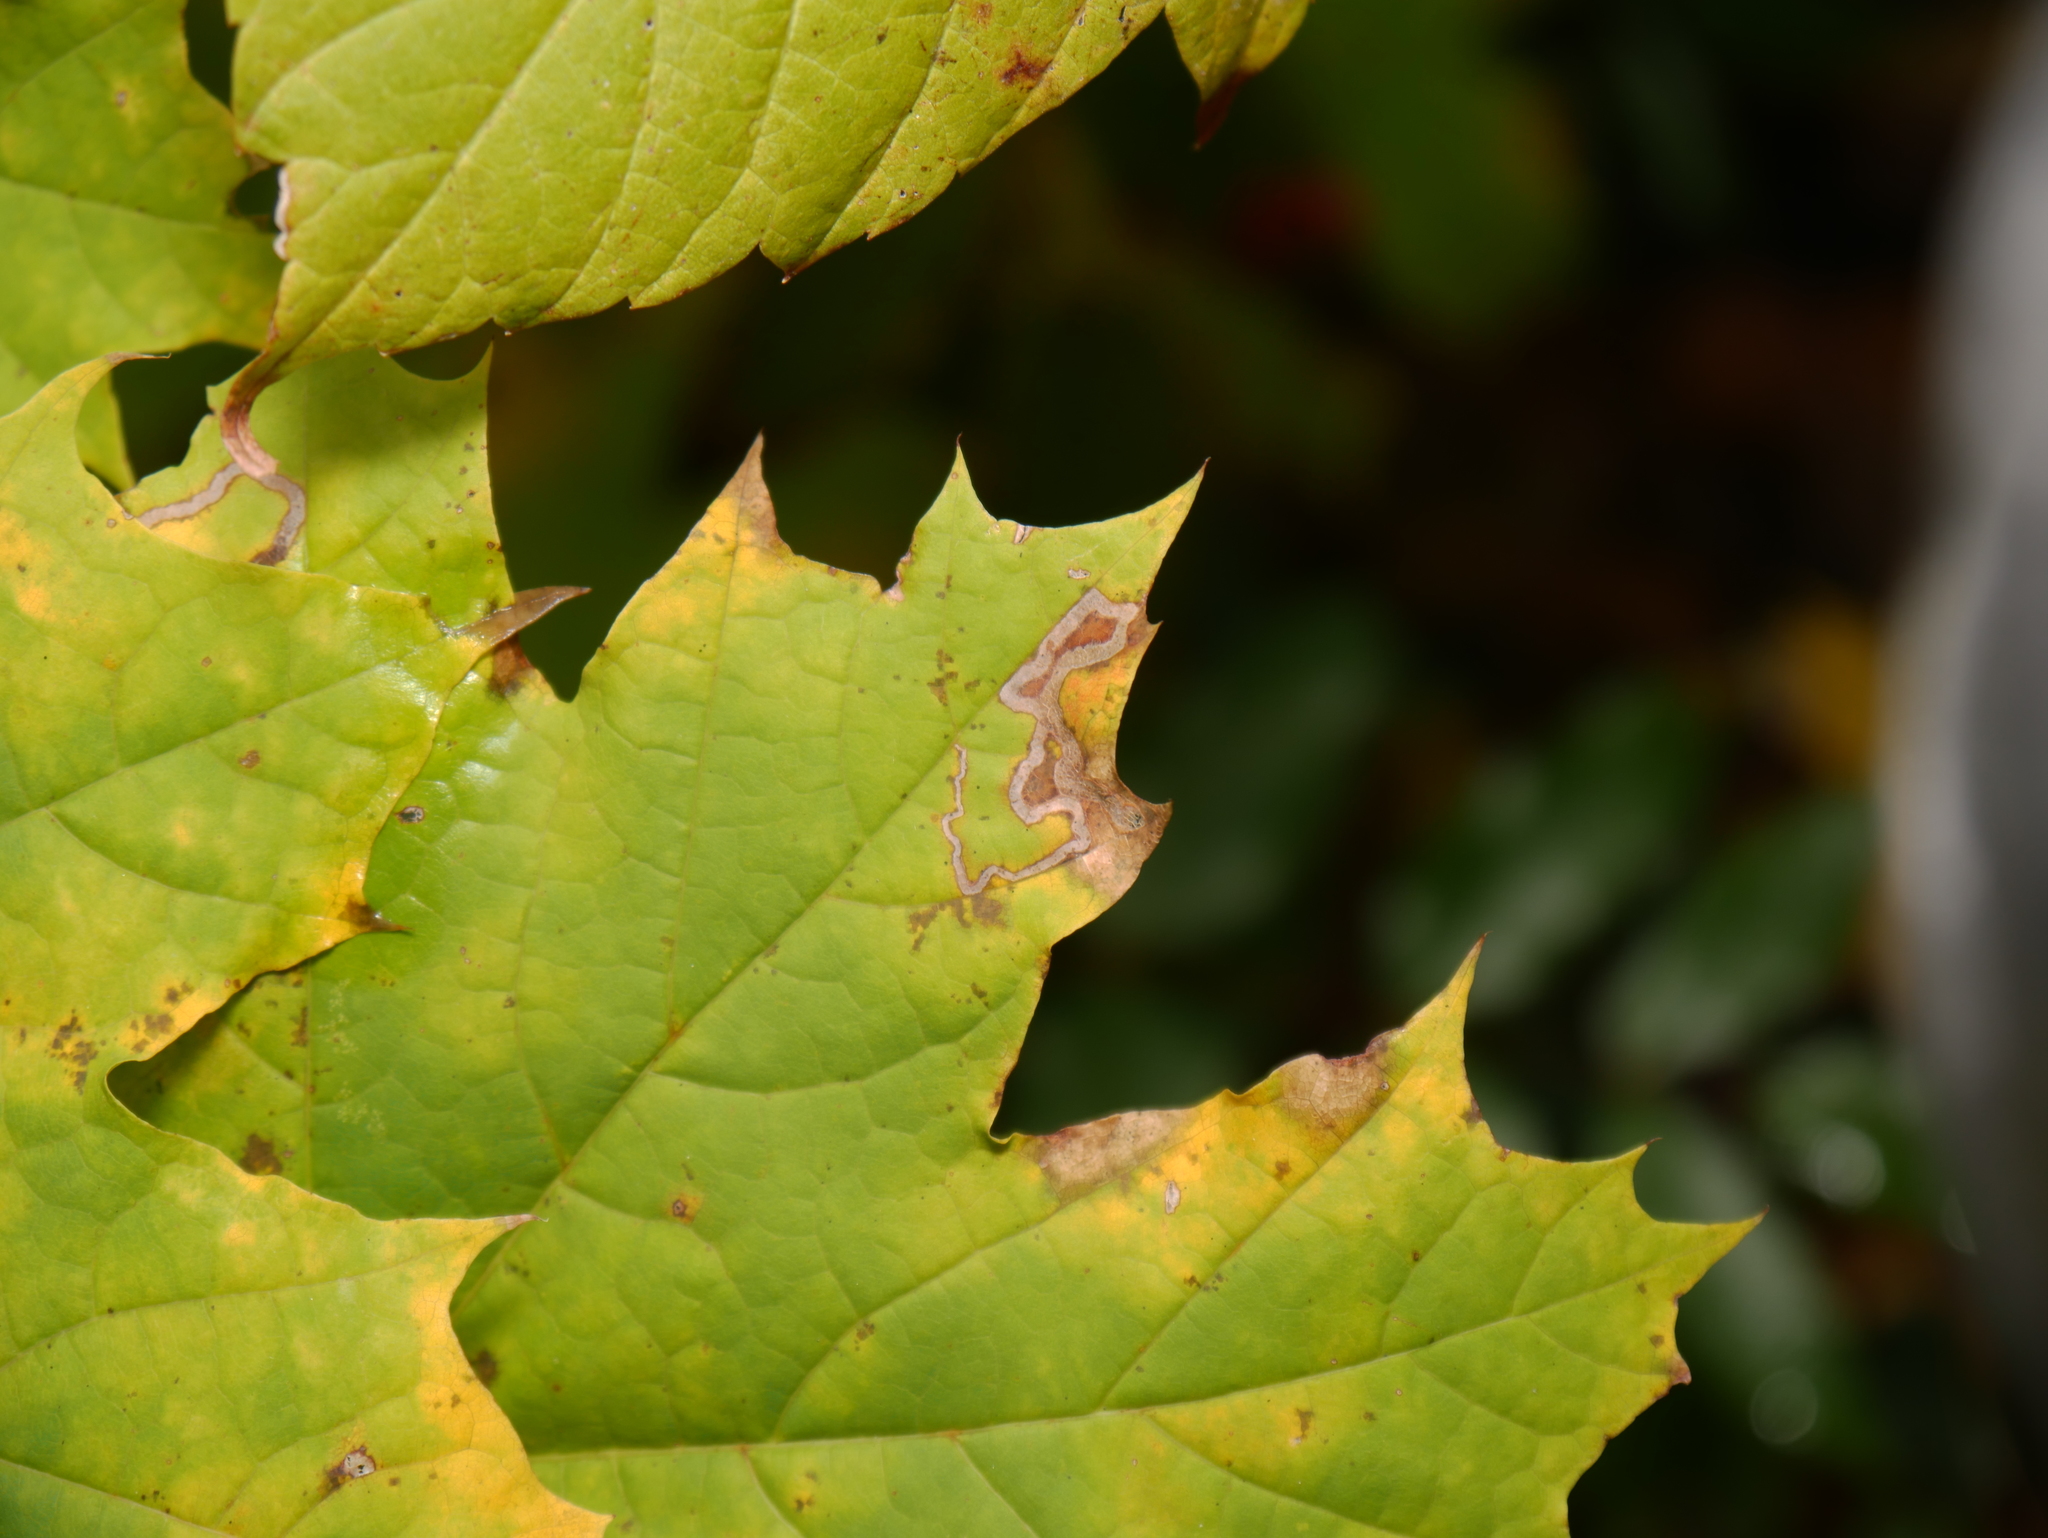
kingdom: Animalia
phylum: Arthropoda
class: Insecta
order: Lepidoptera
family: Nepticulidae
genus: Stigmella
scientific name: Stigmella aceris
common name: Scarce maple pigmy
